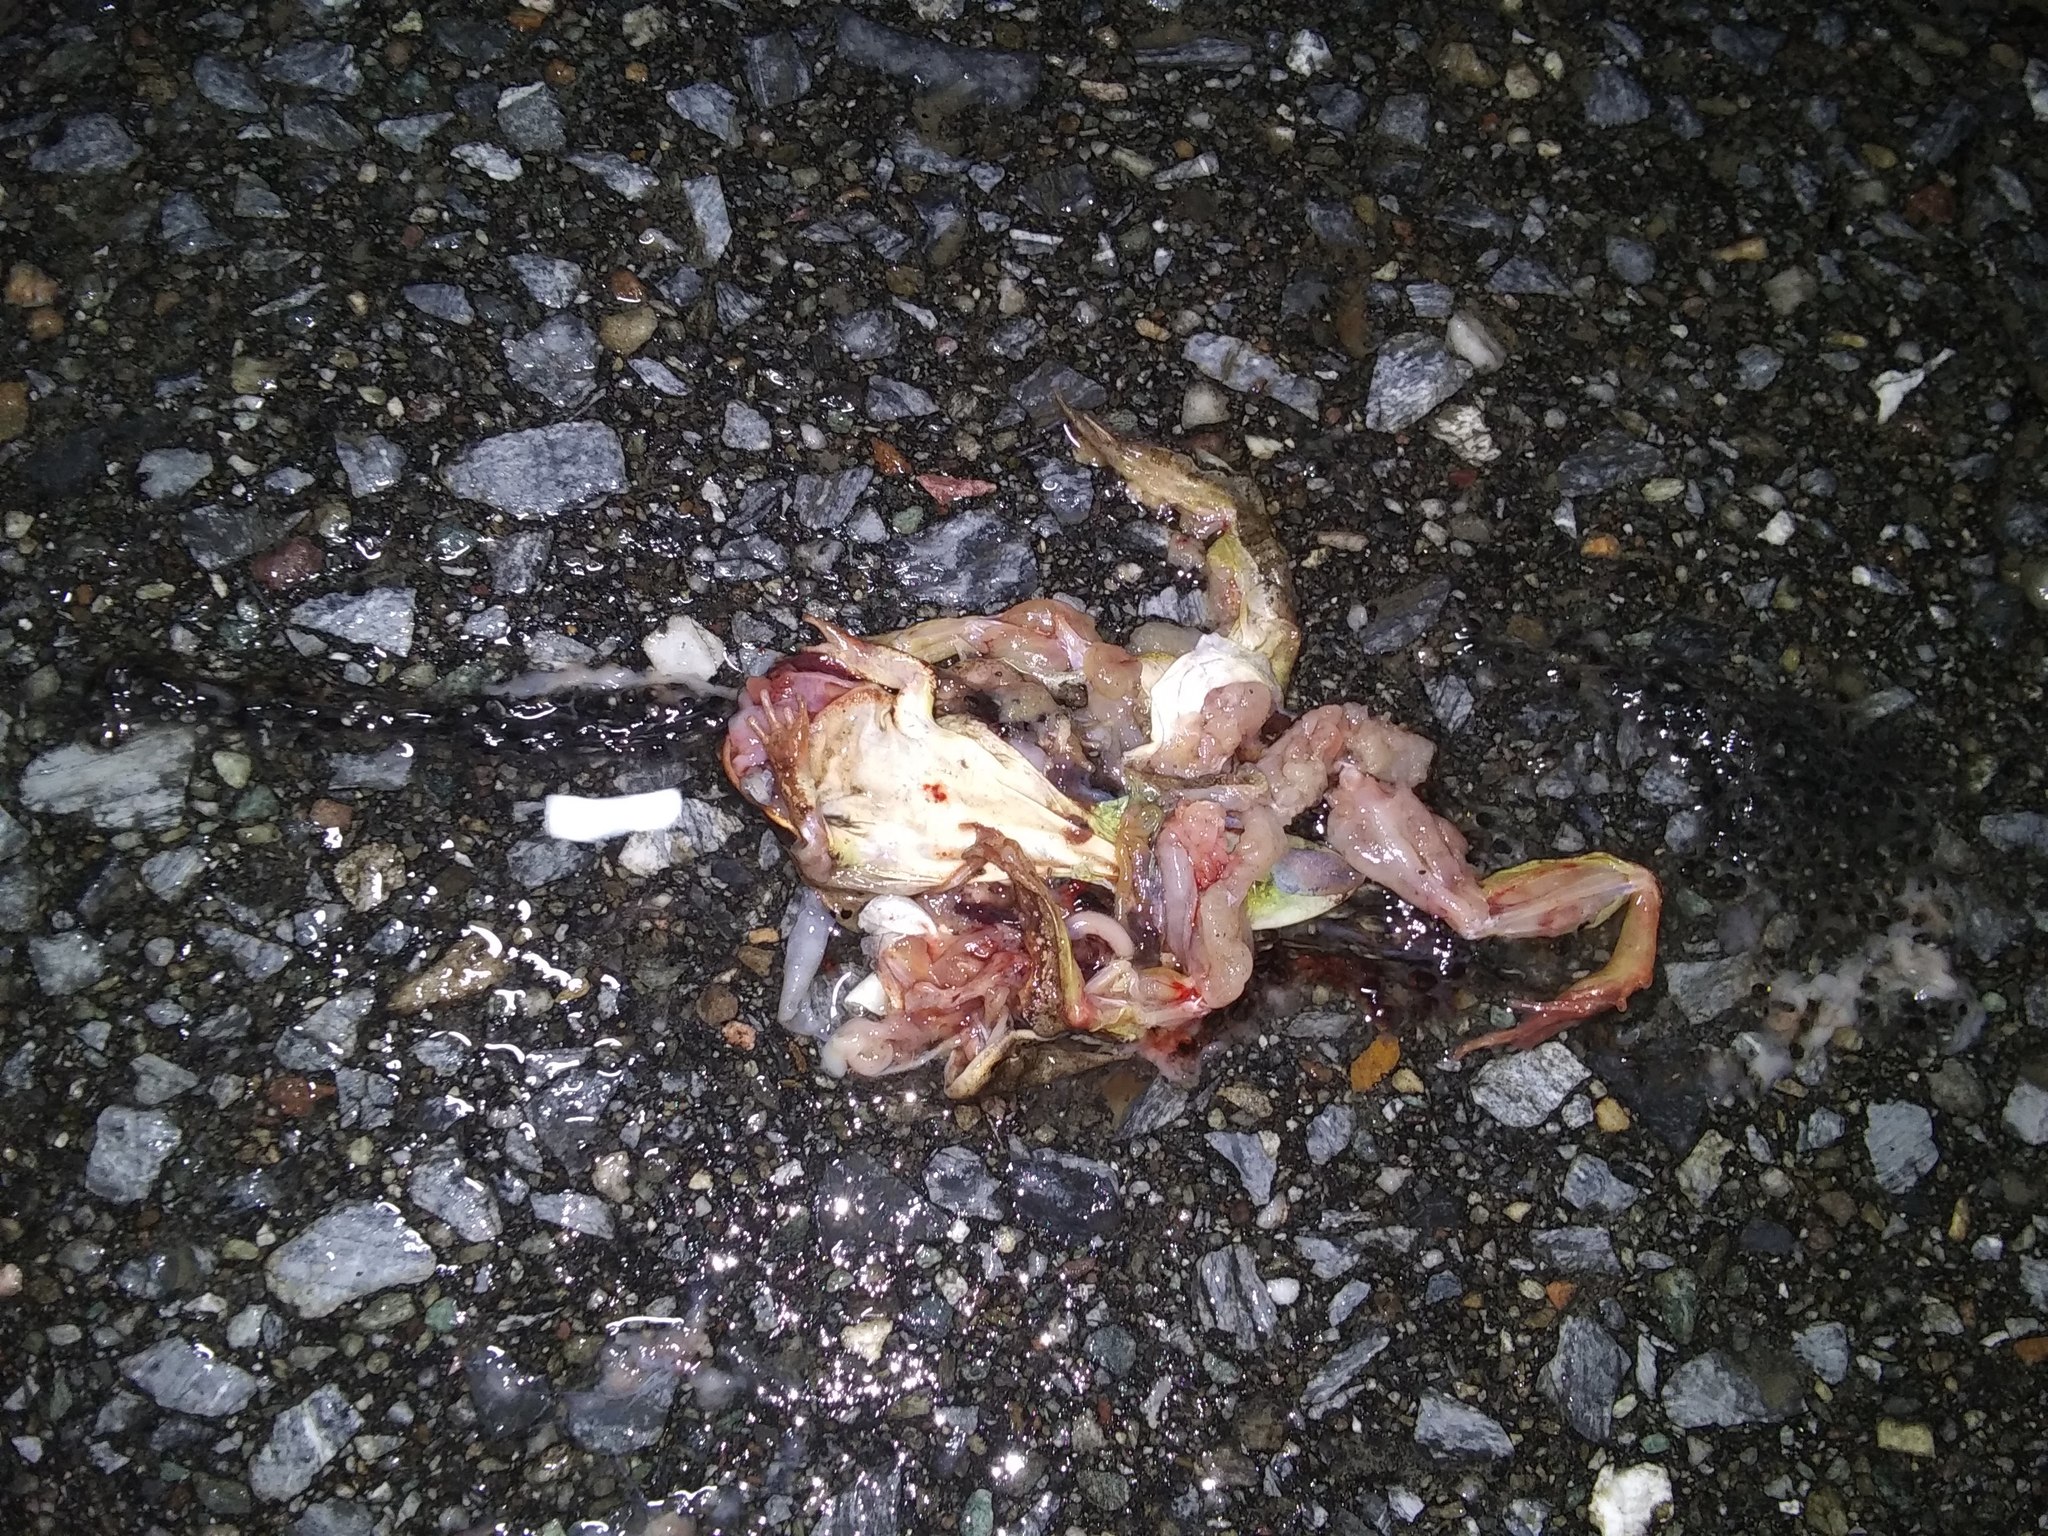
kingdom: Animalia
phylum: Chordata
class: Amphibia
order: Anura
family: Ranidae
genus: Lithobates
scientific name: Lithobates sylvaticus
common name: Wood frog
